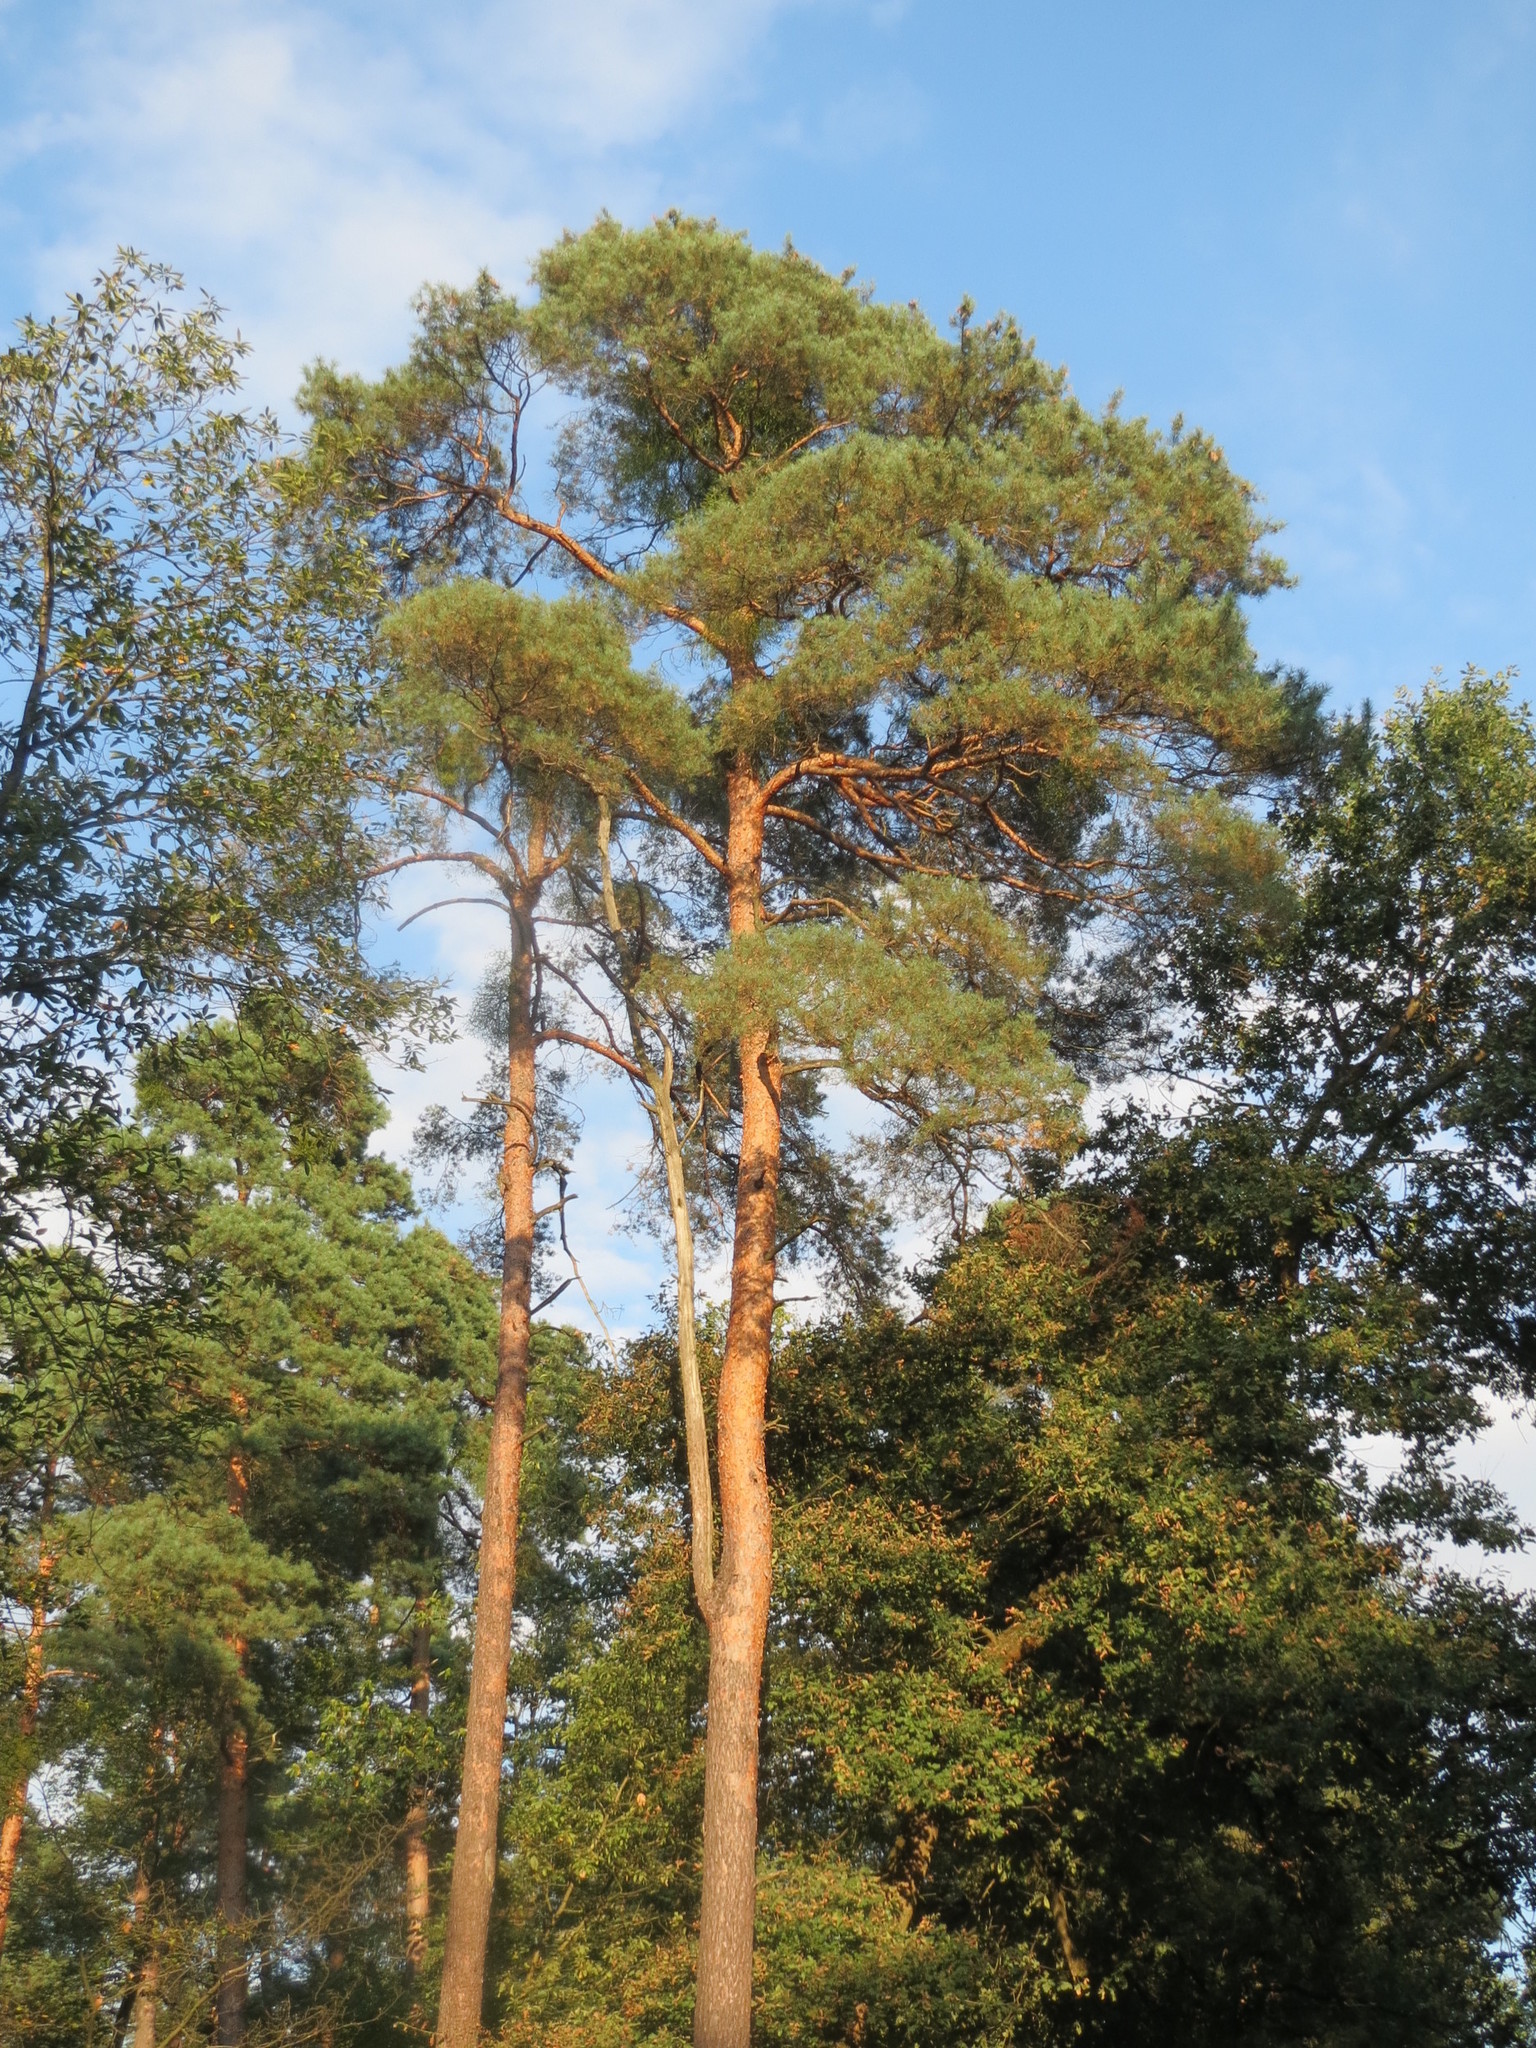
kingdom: Plantae
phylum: Tracheophyta
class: Pinopsida
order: Pinales
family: Pinaceae
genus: Pinus
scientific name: Pinus sylvestris
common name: Scots pine
